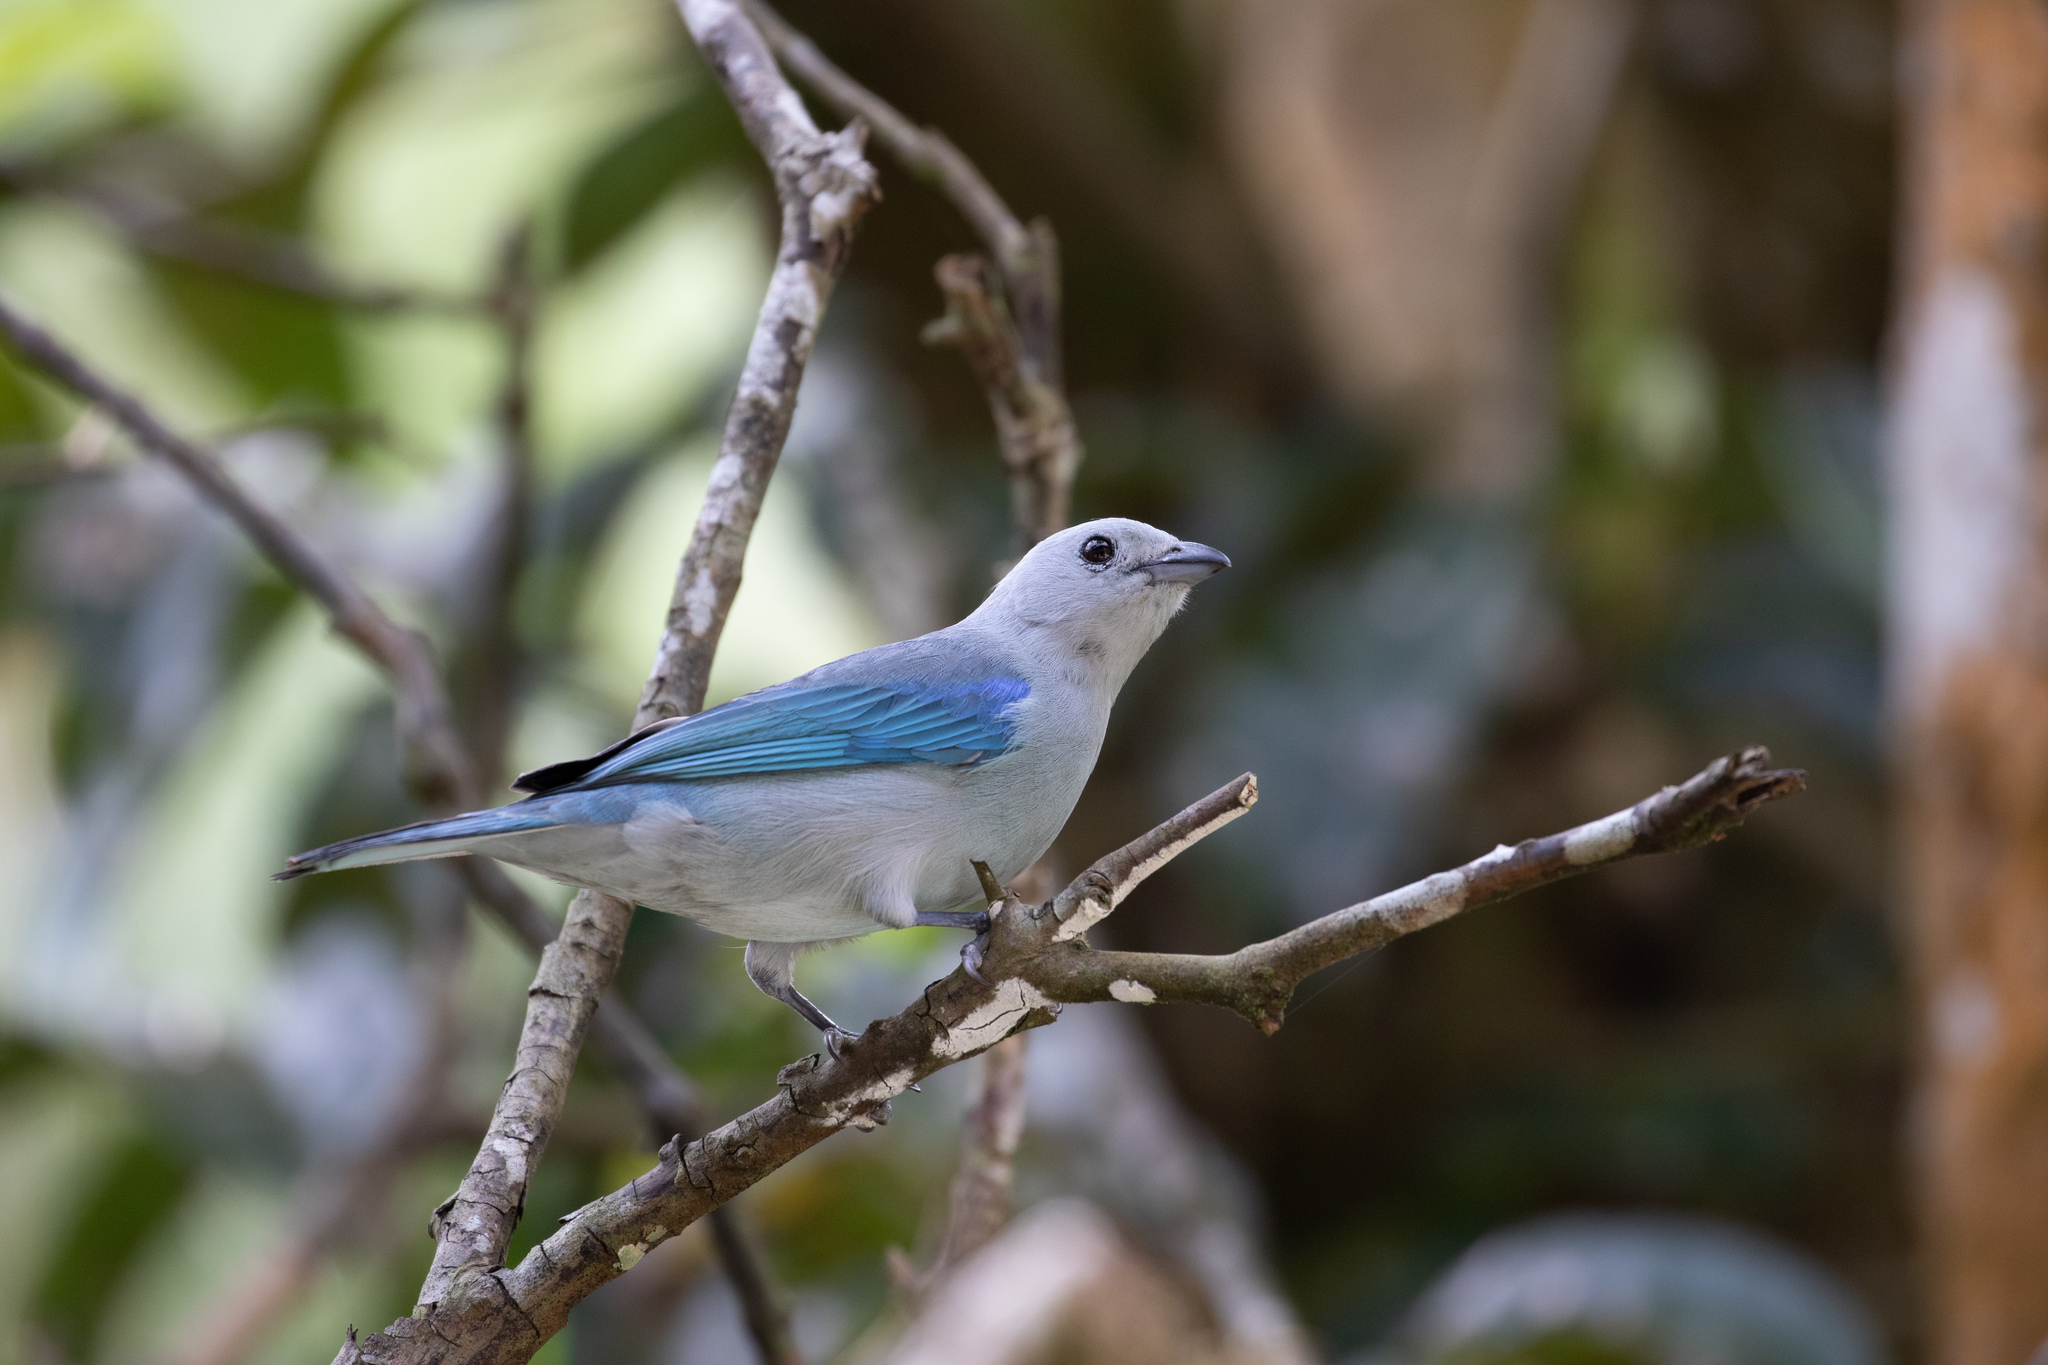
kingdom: Animalia
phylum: Chordata
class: Aves
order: Passeriformes
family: Thraupidae
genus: Thraupis
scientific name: Thraupis episcopus
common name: Blue-grey tanager
